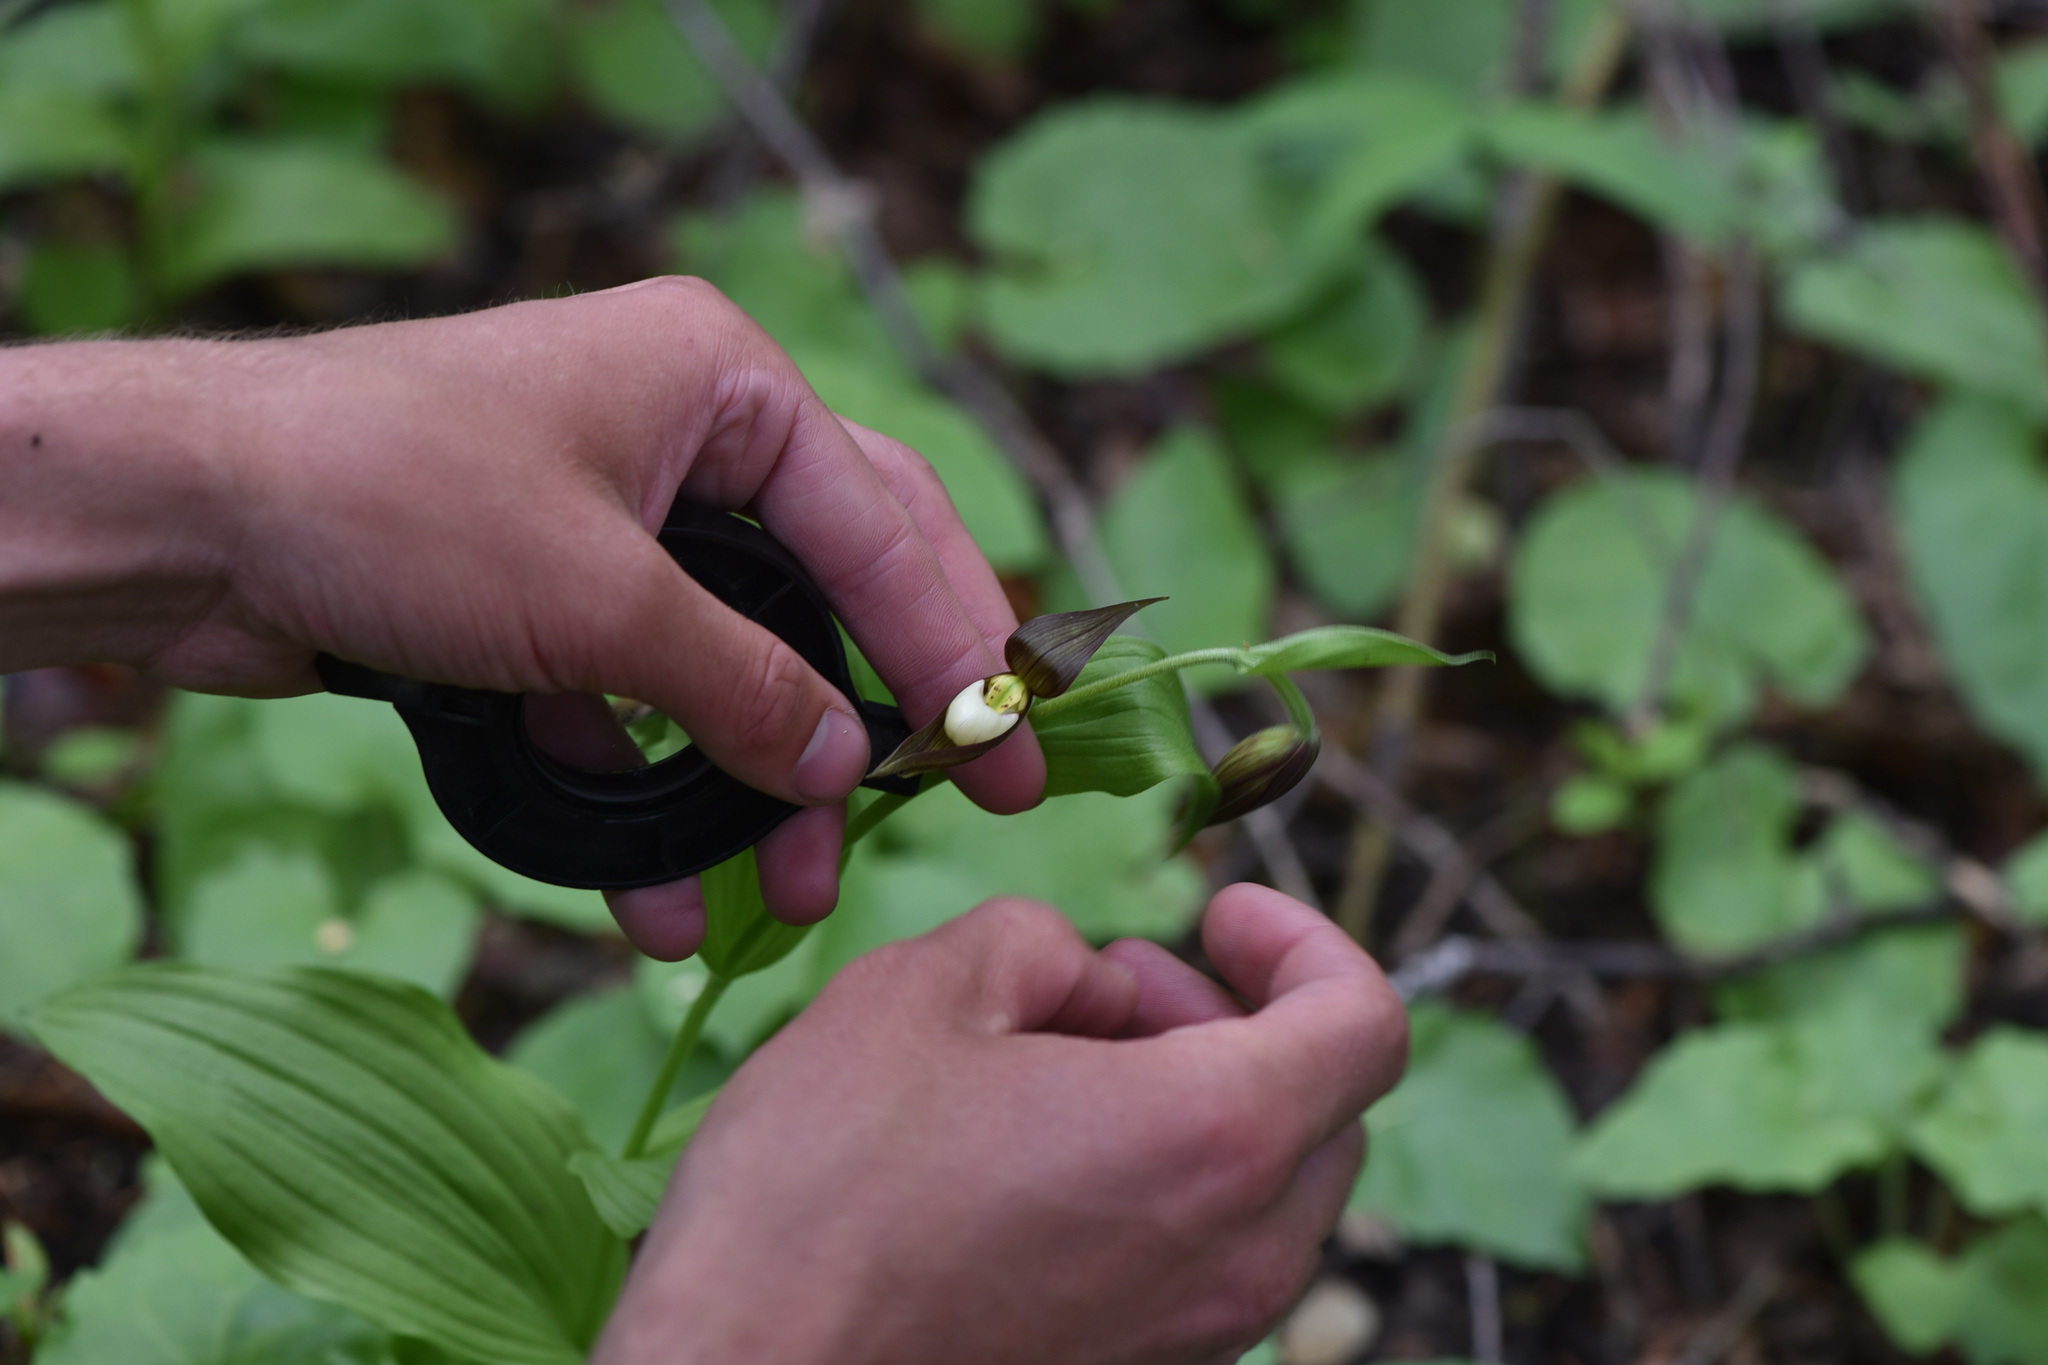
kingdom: Plantae
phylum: Tracheophyta
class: Liliopsida
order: Asparagales
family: Orchidaceae
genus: Cypripedium
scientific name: Cypripedium montanum
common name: Mountain lady's-slipper
